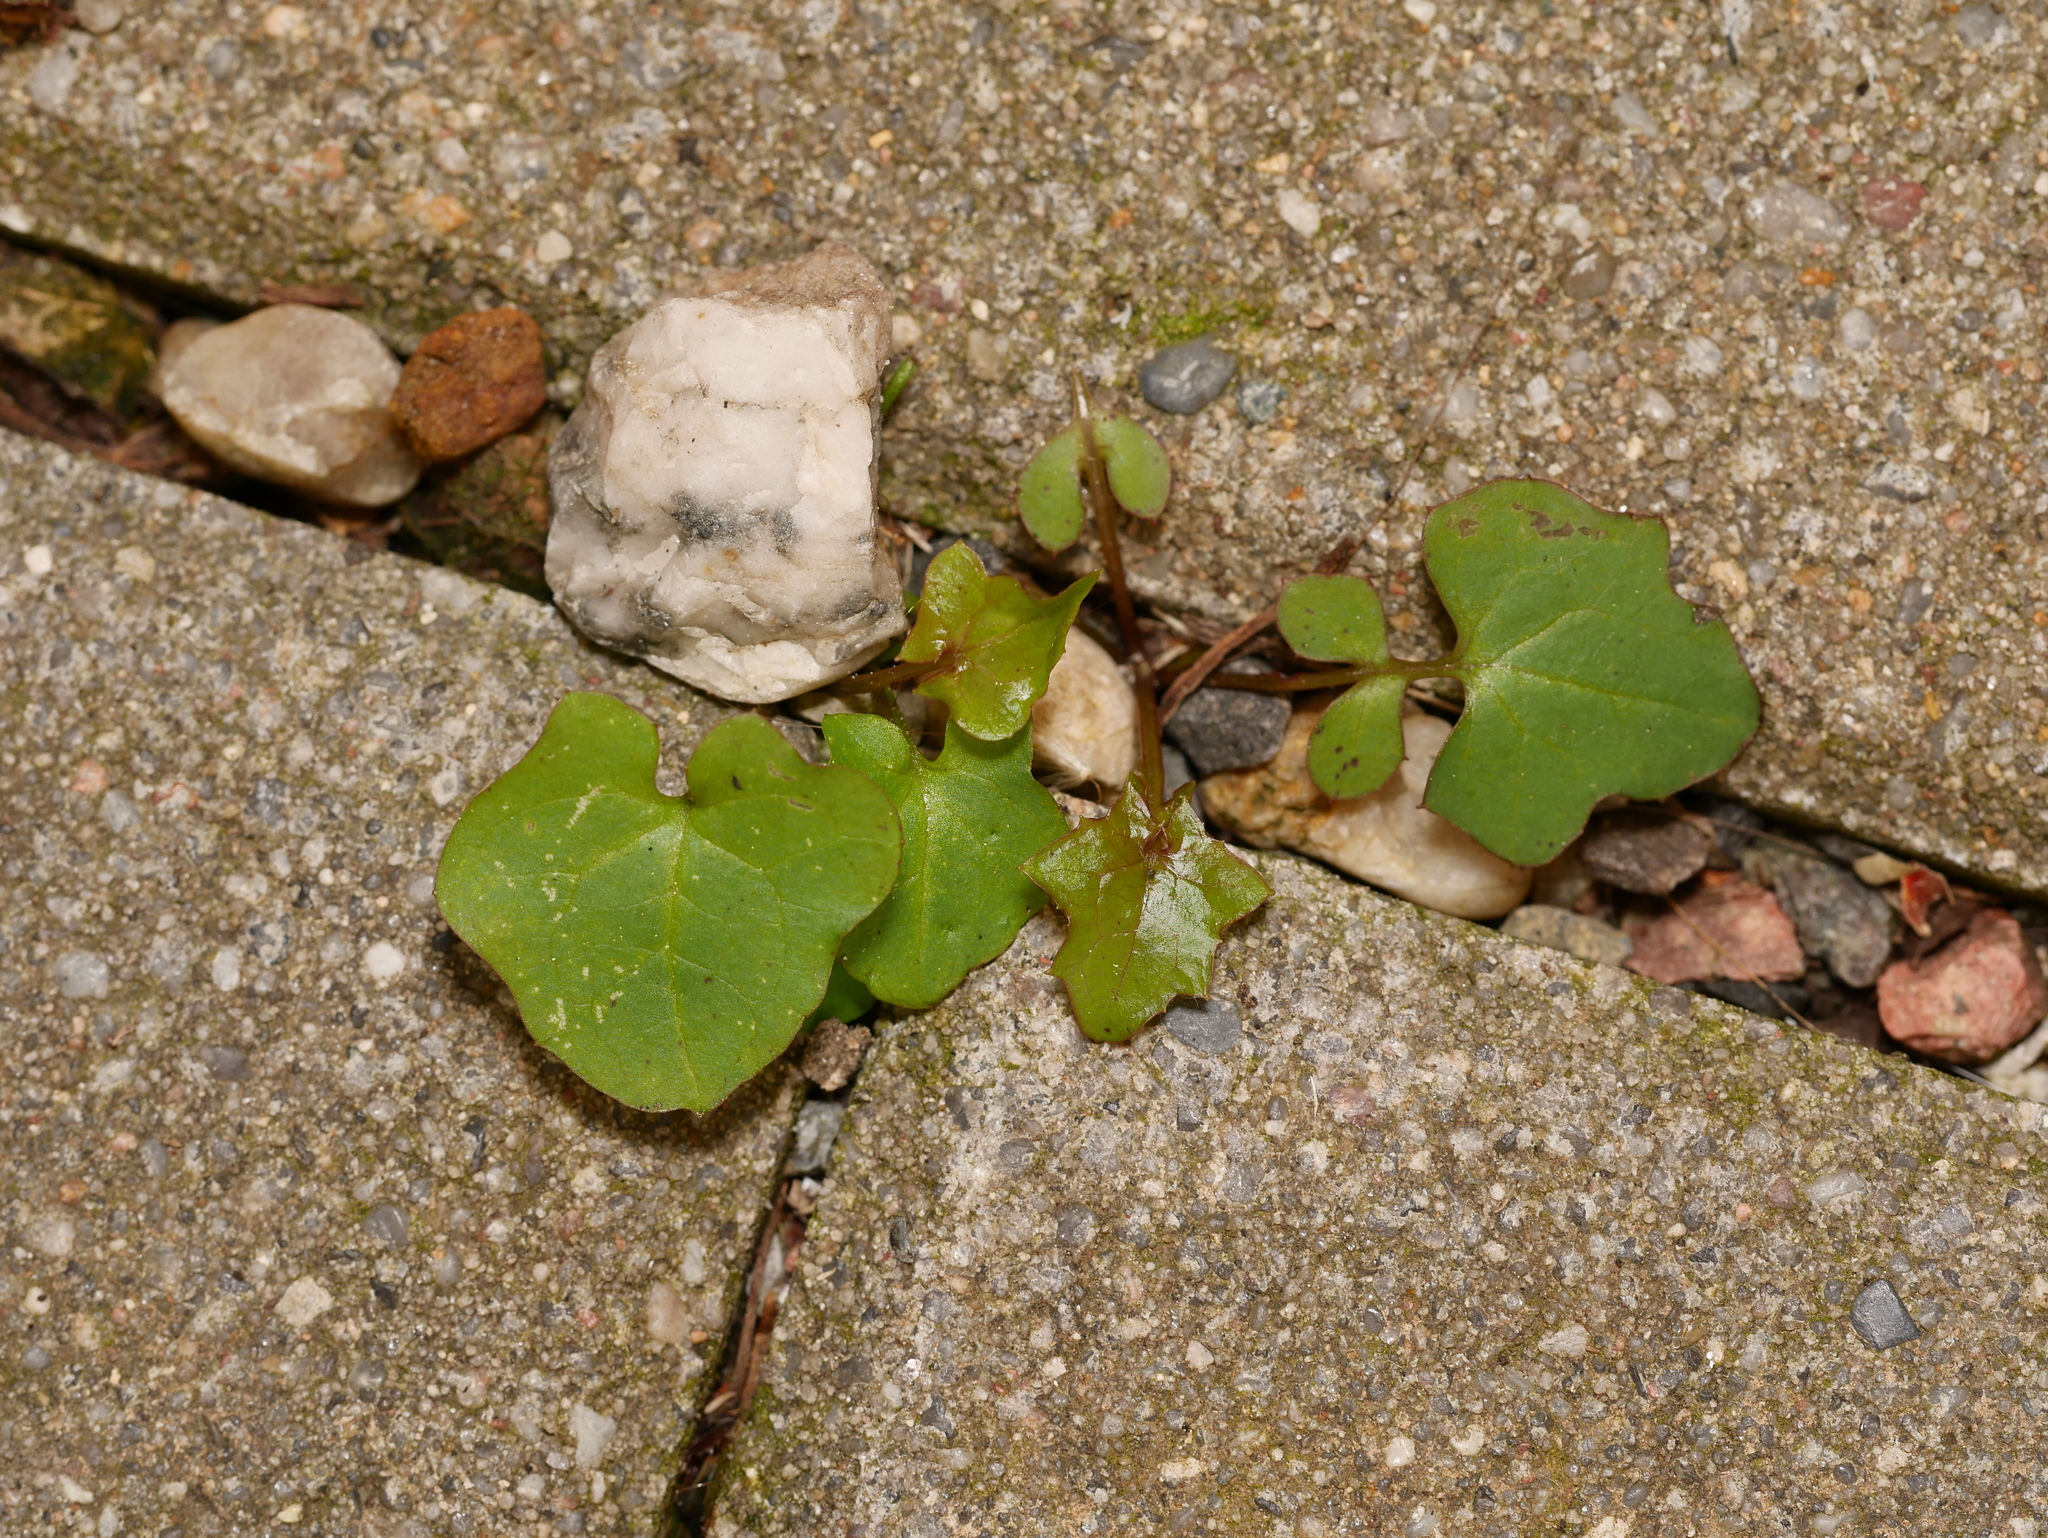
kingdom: Plantae
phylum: Tracheophyta
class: Magnoliopsida
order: Asterales
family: Asteraceae
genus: Mycelis
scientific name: Mycelis muralis
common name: Wall lettuce
